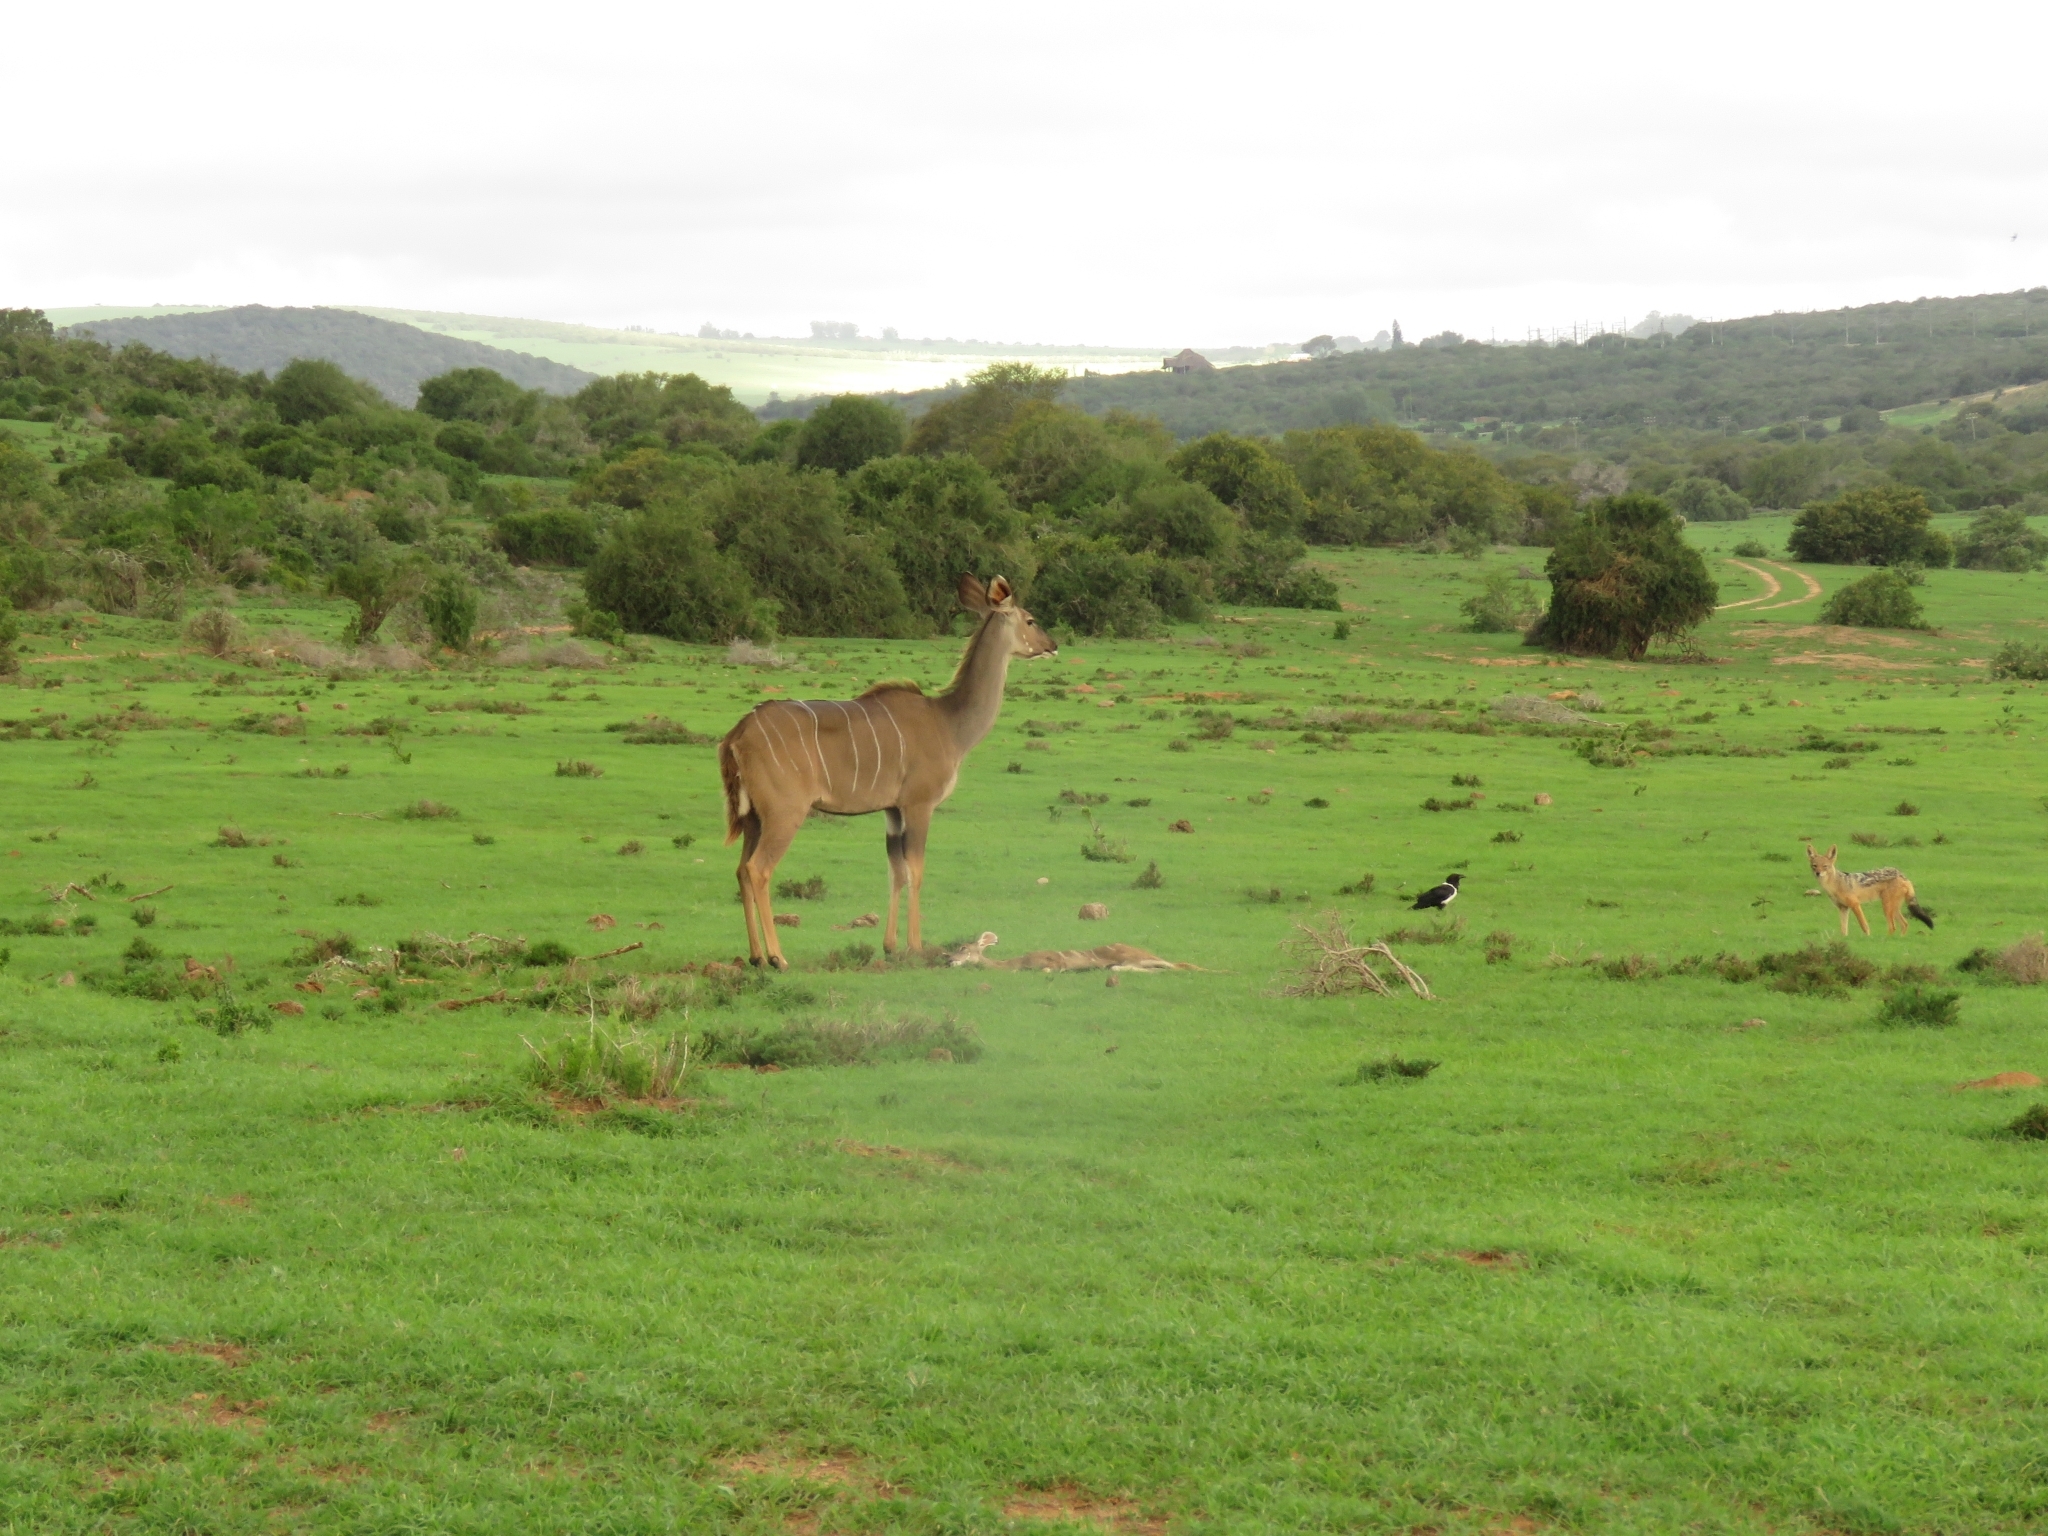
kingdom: Animalia
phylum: Chordata
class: Mammalia
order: Artiodactyla
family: Bovidae
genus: Tragelaphus
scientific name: Tragelaphus strepsiceros
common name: Greater kudu
